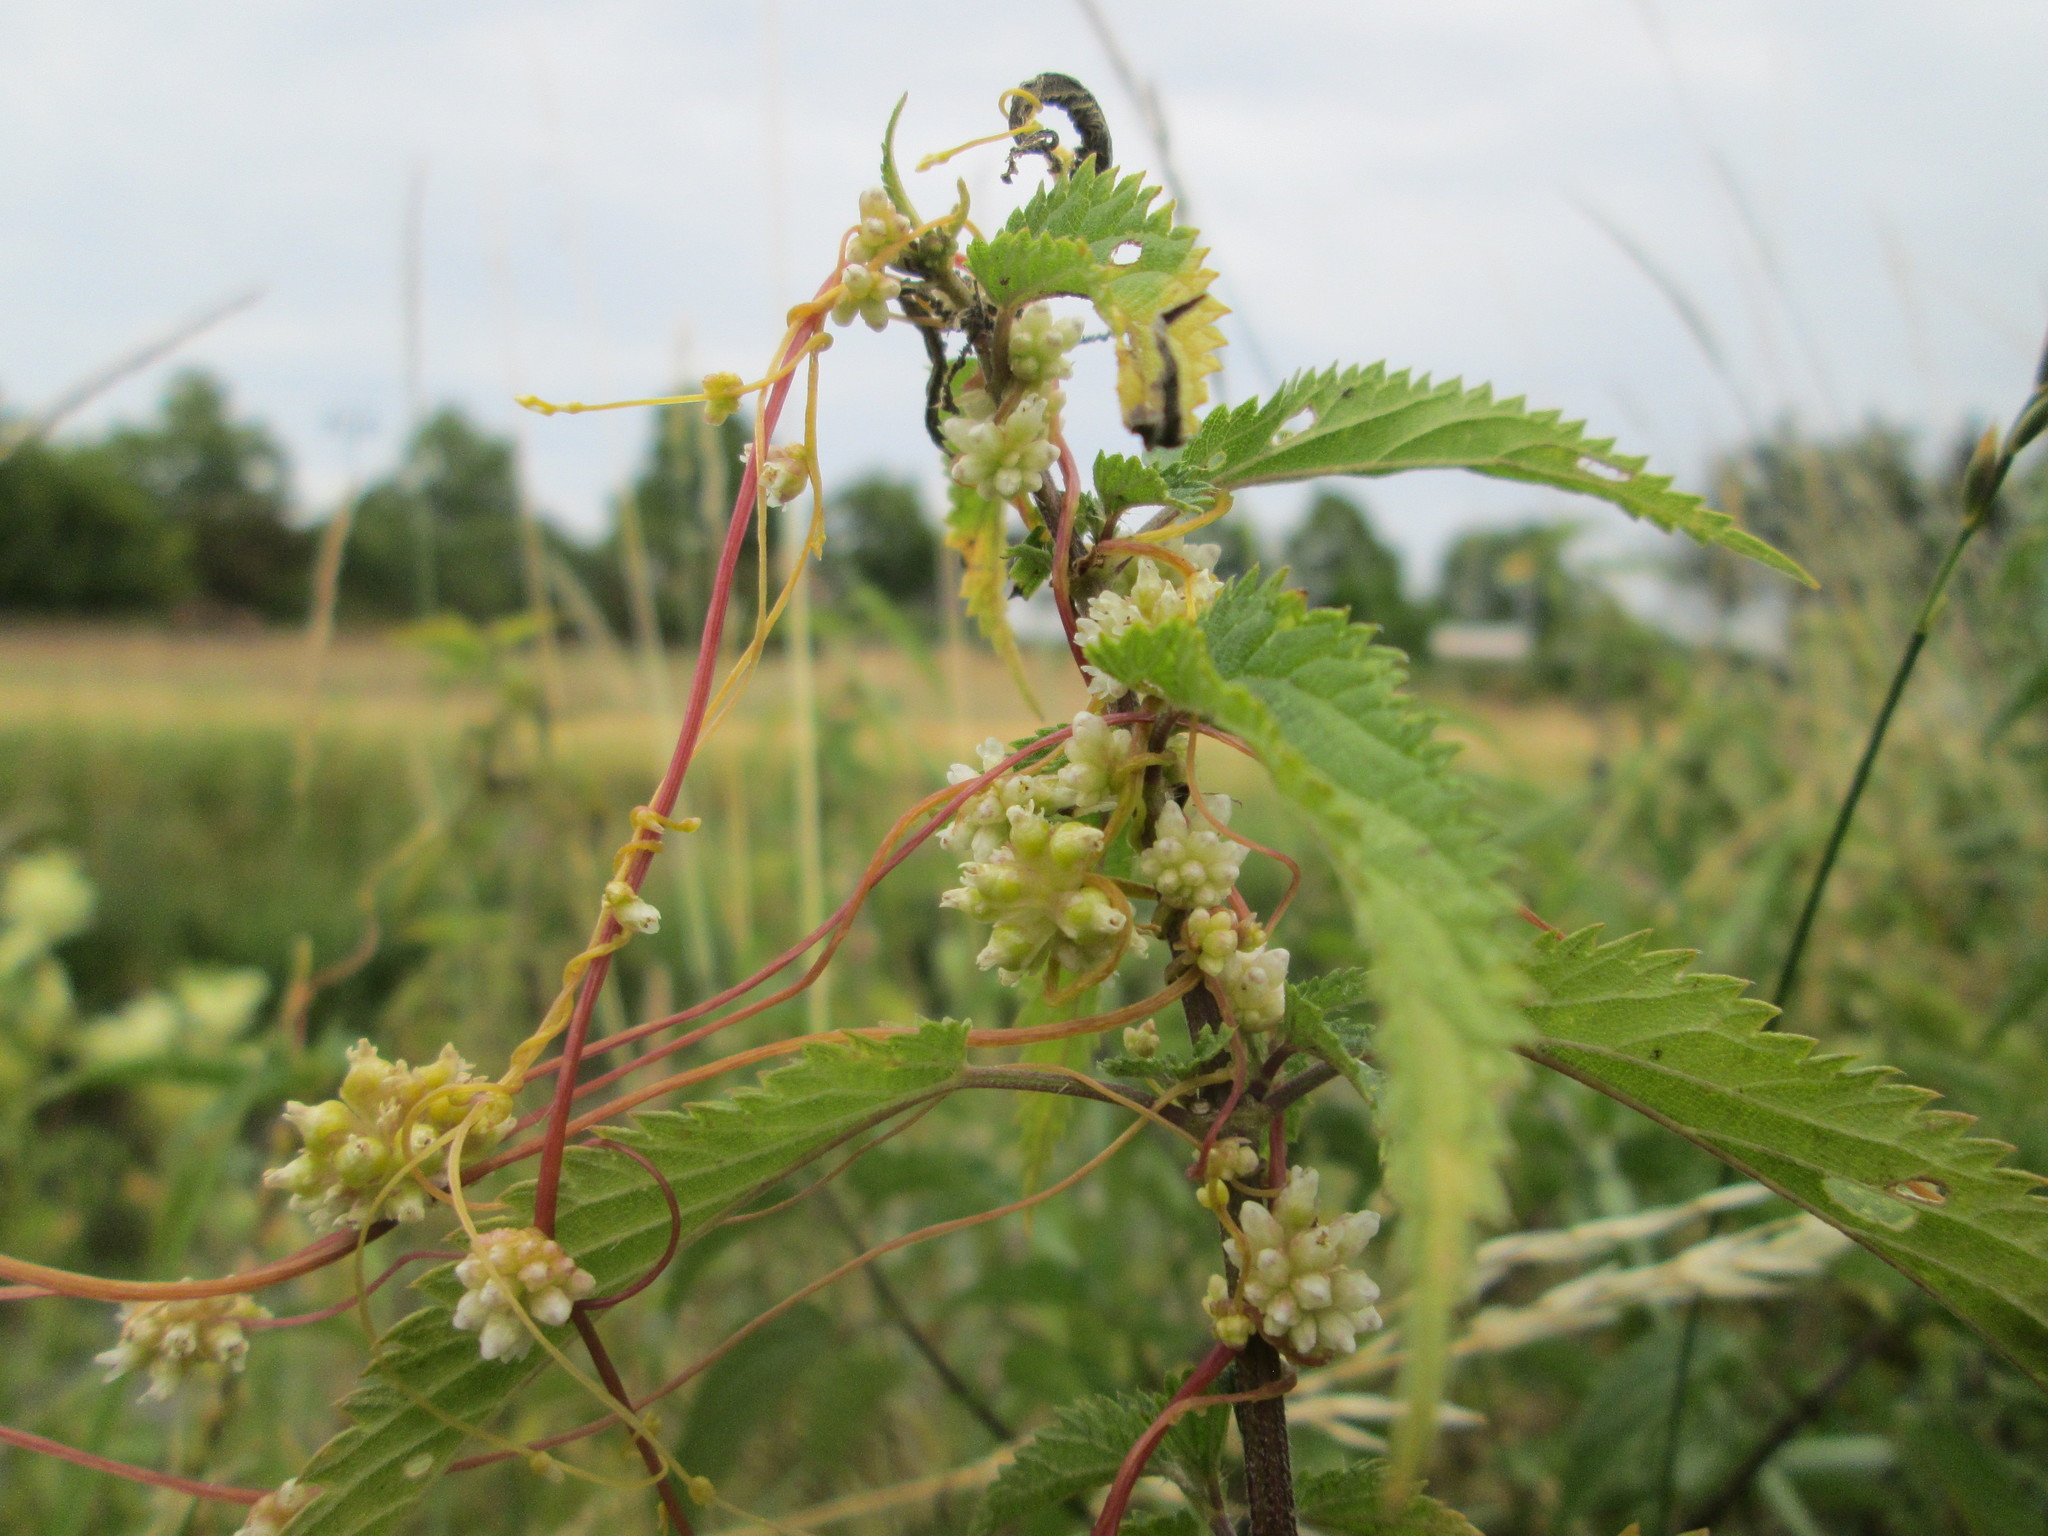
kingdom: Plantae
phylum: Tracheophyta
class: Magnoliopsida
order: Solanales
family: Convolvulaceae
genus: Cuscuta
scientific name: Cuscuta europaea
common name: Greater dodder
